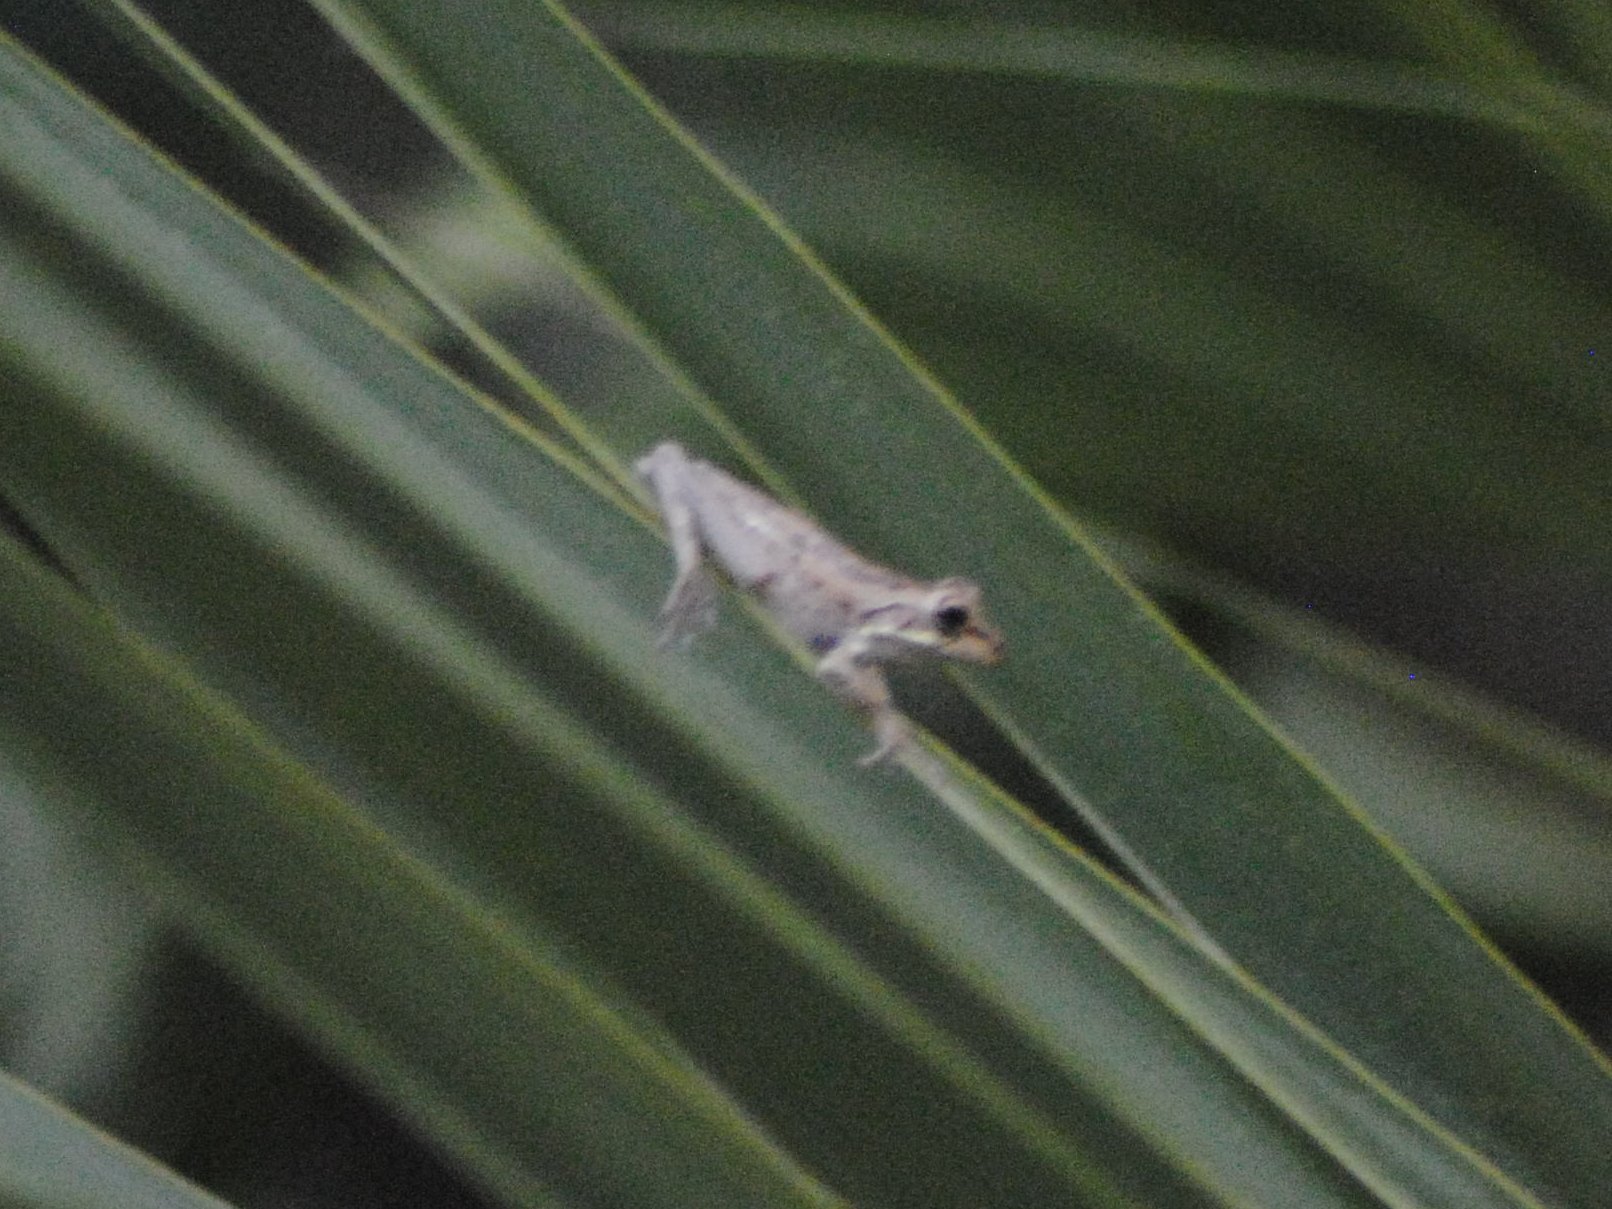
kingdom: Animalia
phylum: Chordata
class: Amphibia
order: Anura
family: Hylidae
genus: Osteopilus
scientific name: Osteopilus septentrionalis
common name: Cuban treefrog
